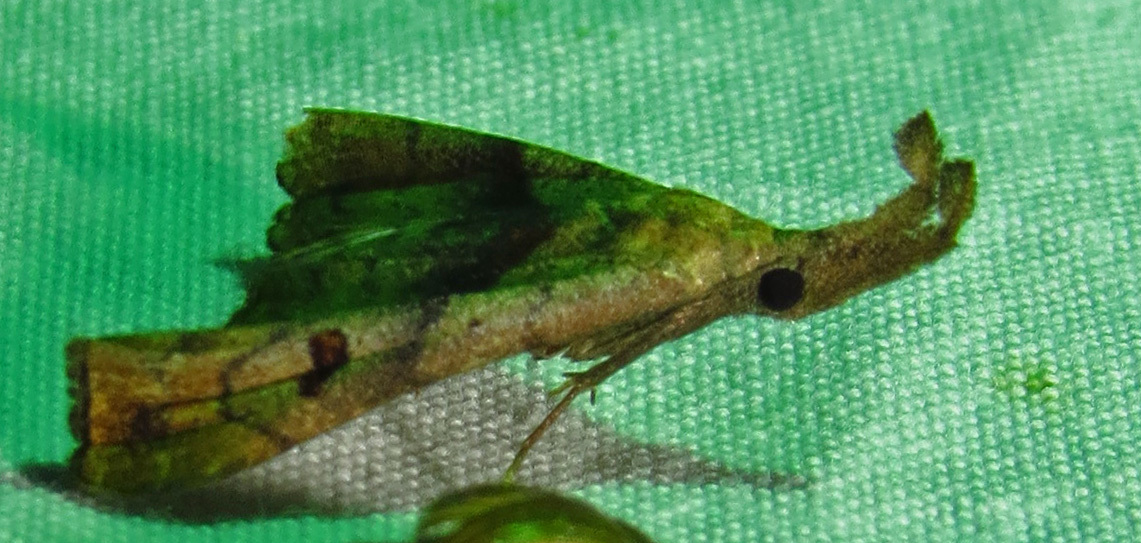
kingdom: Animalia
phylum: Arthropoda
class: Insecta
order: Lepidoptera
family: Erebidae
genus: Palthis
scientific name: Palthis angulalis
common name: Dark-spotted palthis moth
